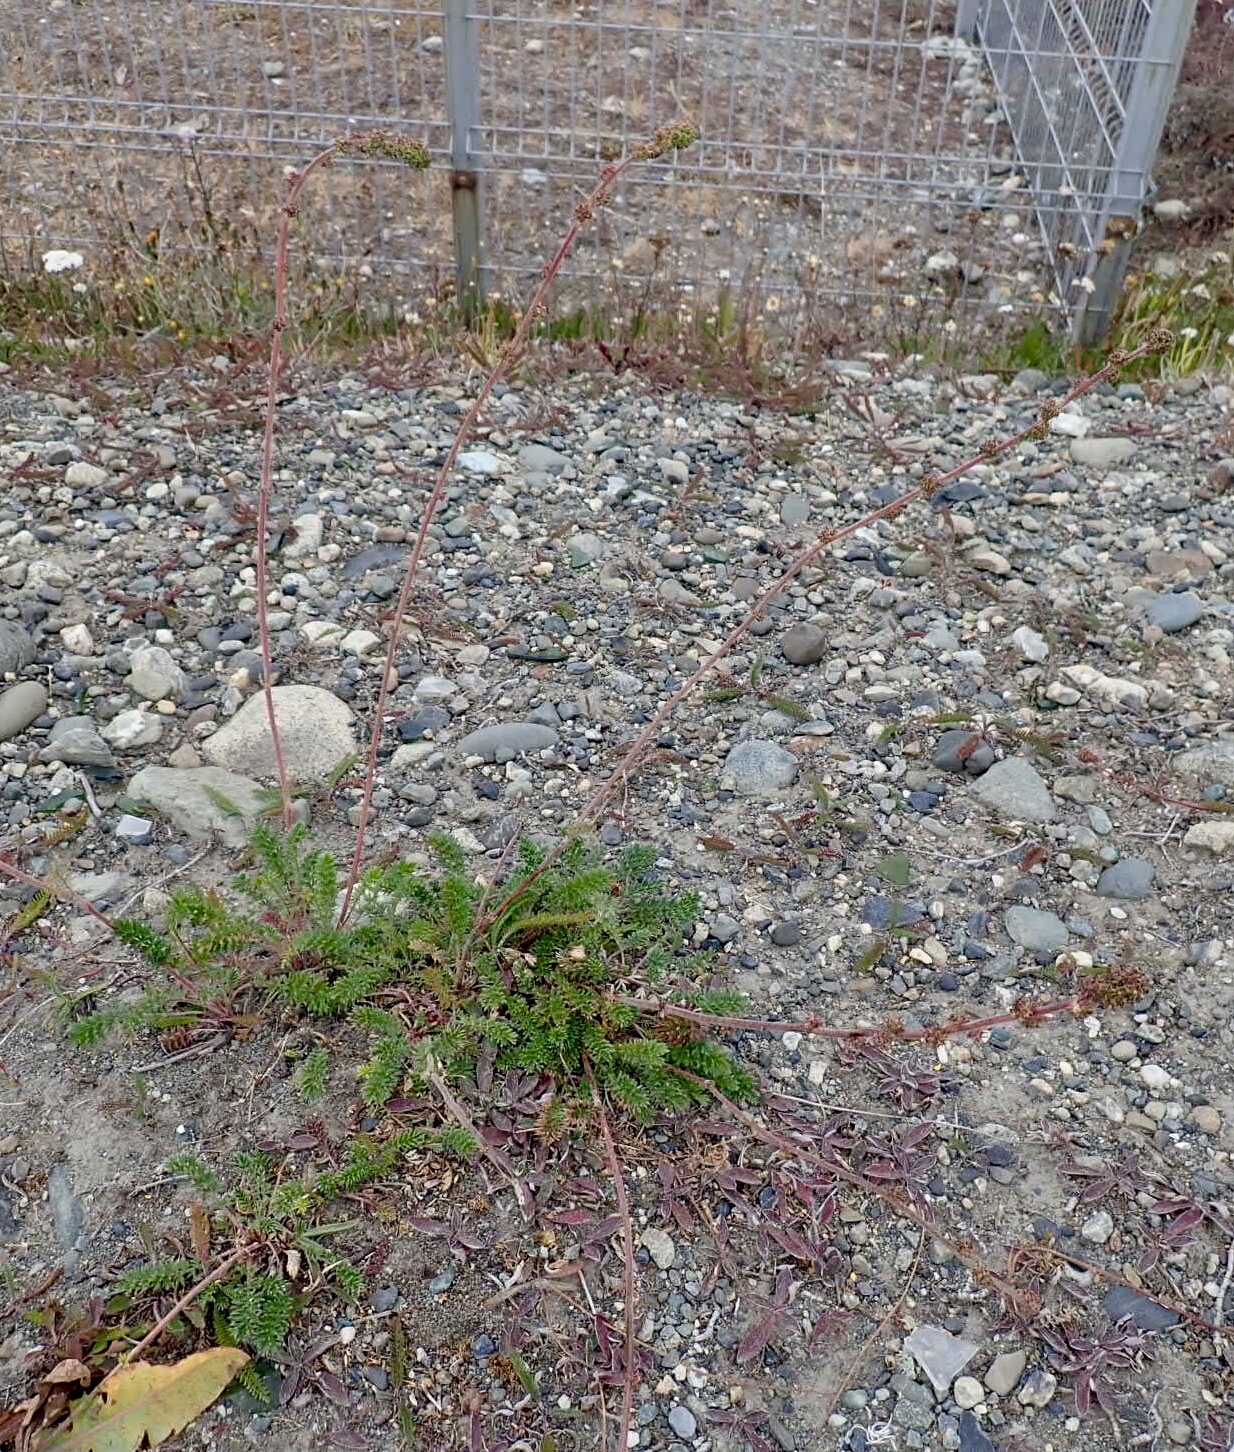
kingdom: Plantae
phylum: Tracheophyta
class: Magnoliopsida
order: Rosales
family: Rosaceae
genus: Acaena
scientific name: Acaena pinnatifida
